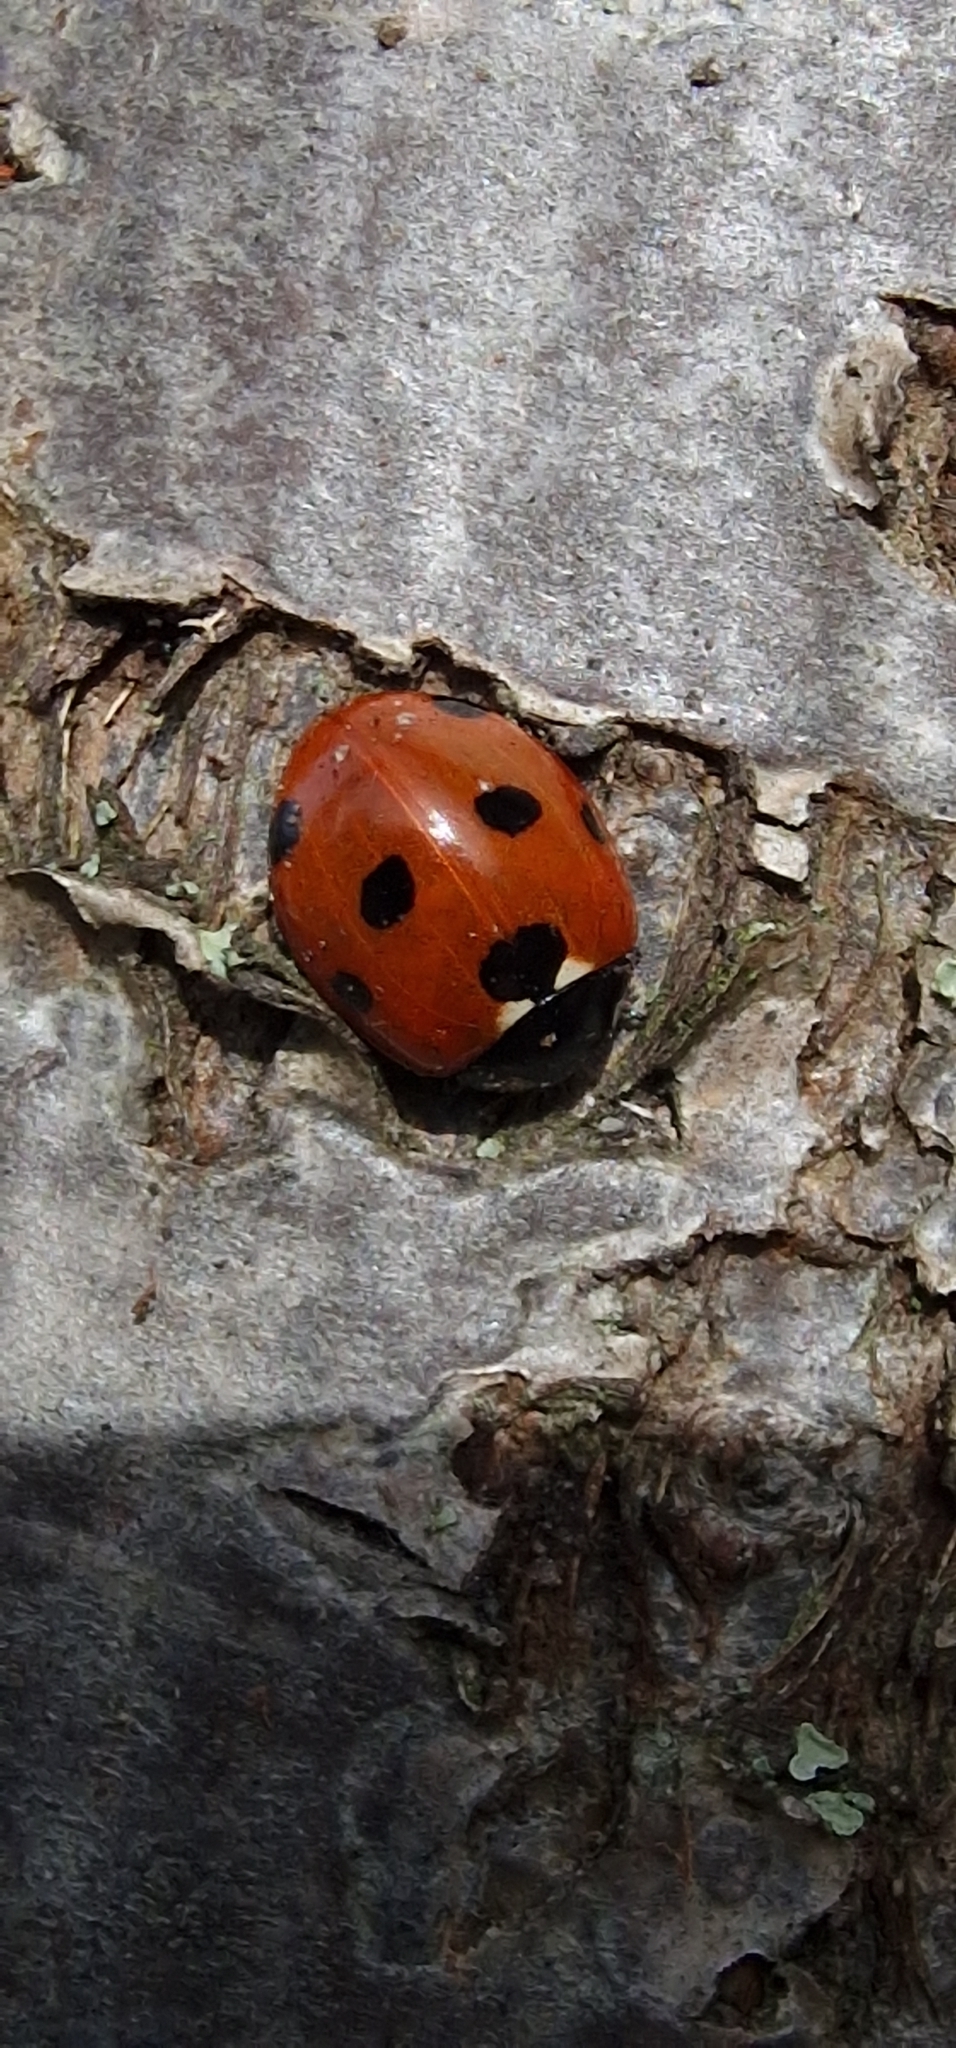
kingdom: Animalia
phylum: Arthropoda
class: Insecta
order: Coleoptera
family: Coccinellidae
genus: Coccinella
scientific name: Coccinella septempunctata
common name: Sevenspotted lady beetle
